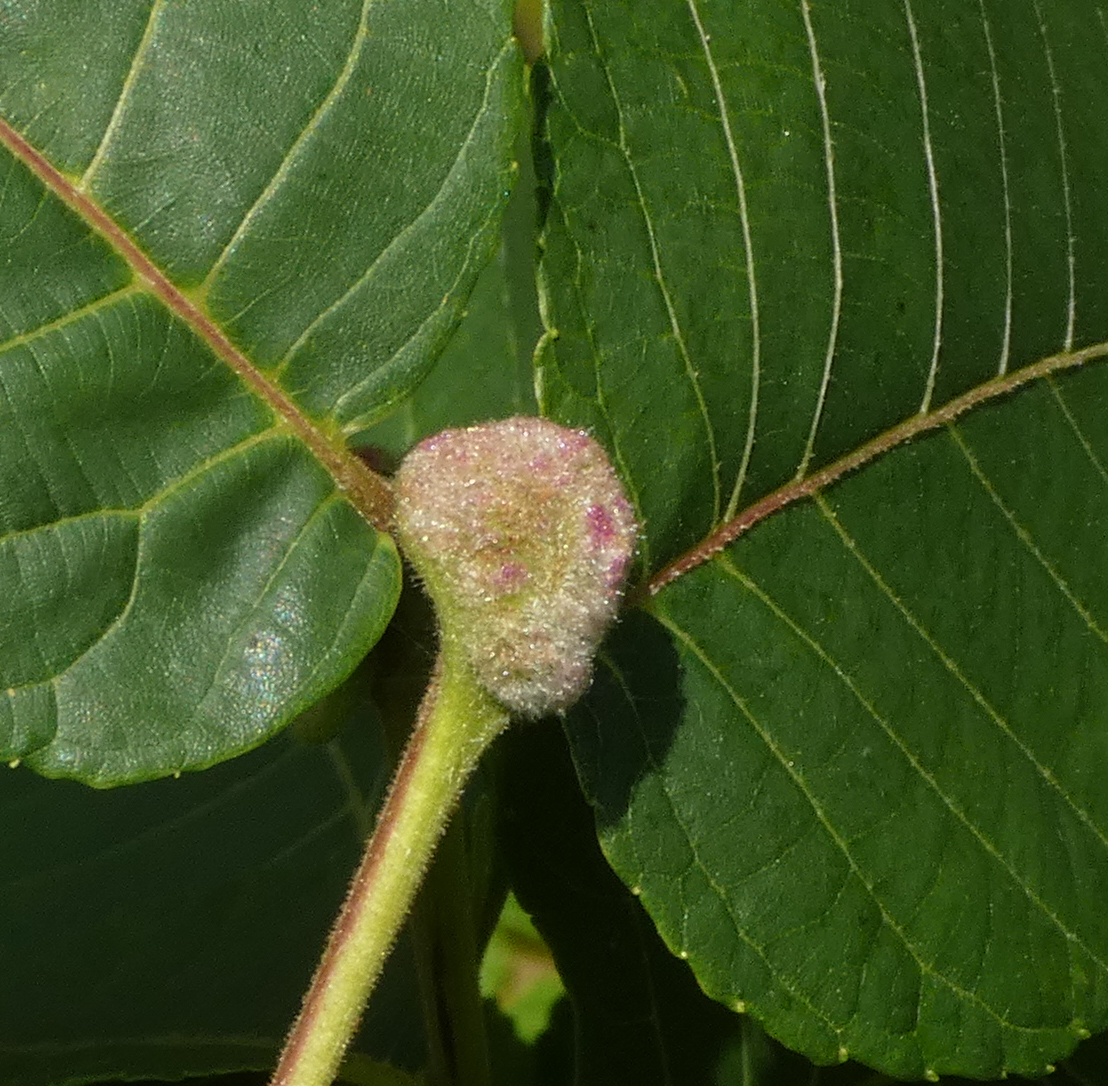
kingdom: Animalia
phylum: Arthropoda
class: Arachnida
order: Trombidiformes
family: Eriophyidae
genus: Aceria
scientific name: Aceria
